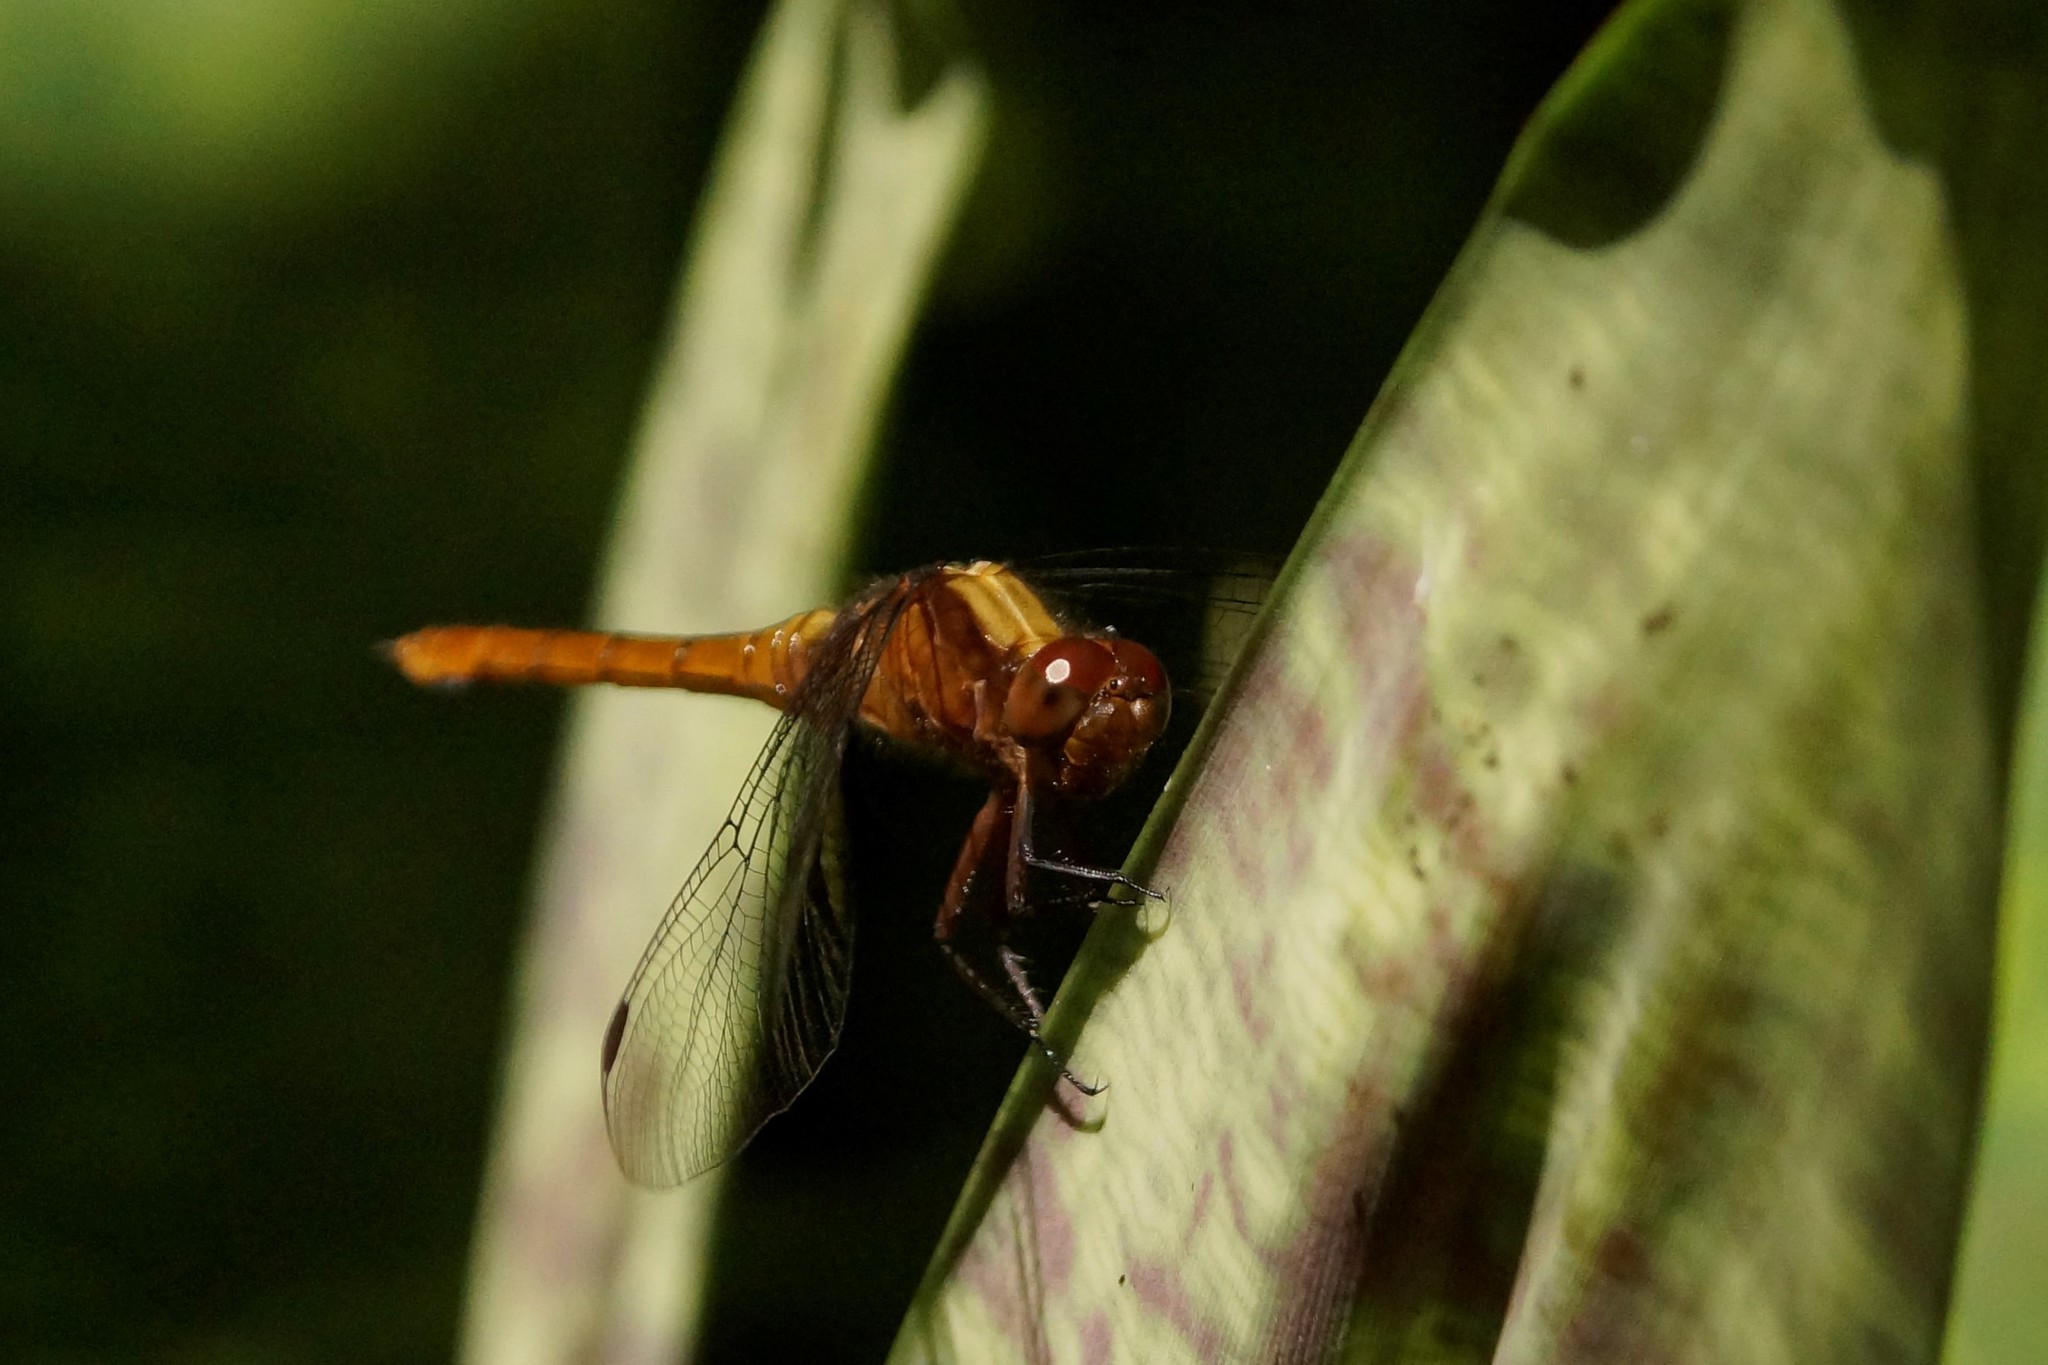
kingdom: Animalia
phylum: Arthropoda
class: Insecta
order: Odonata
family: Libellulidae
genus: Orthetrum
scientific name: Orthetrum villosovittatum
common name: Firery skimmer
